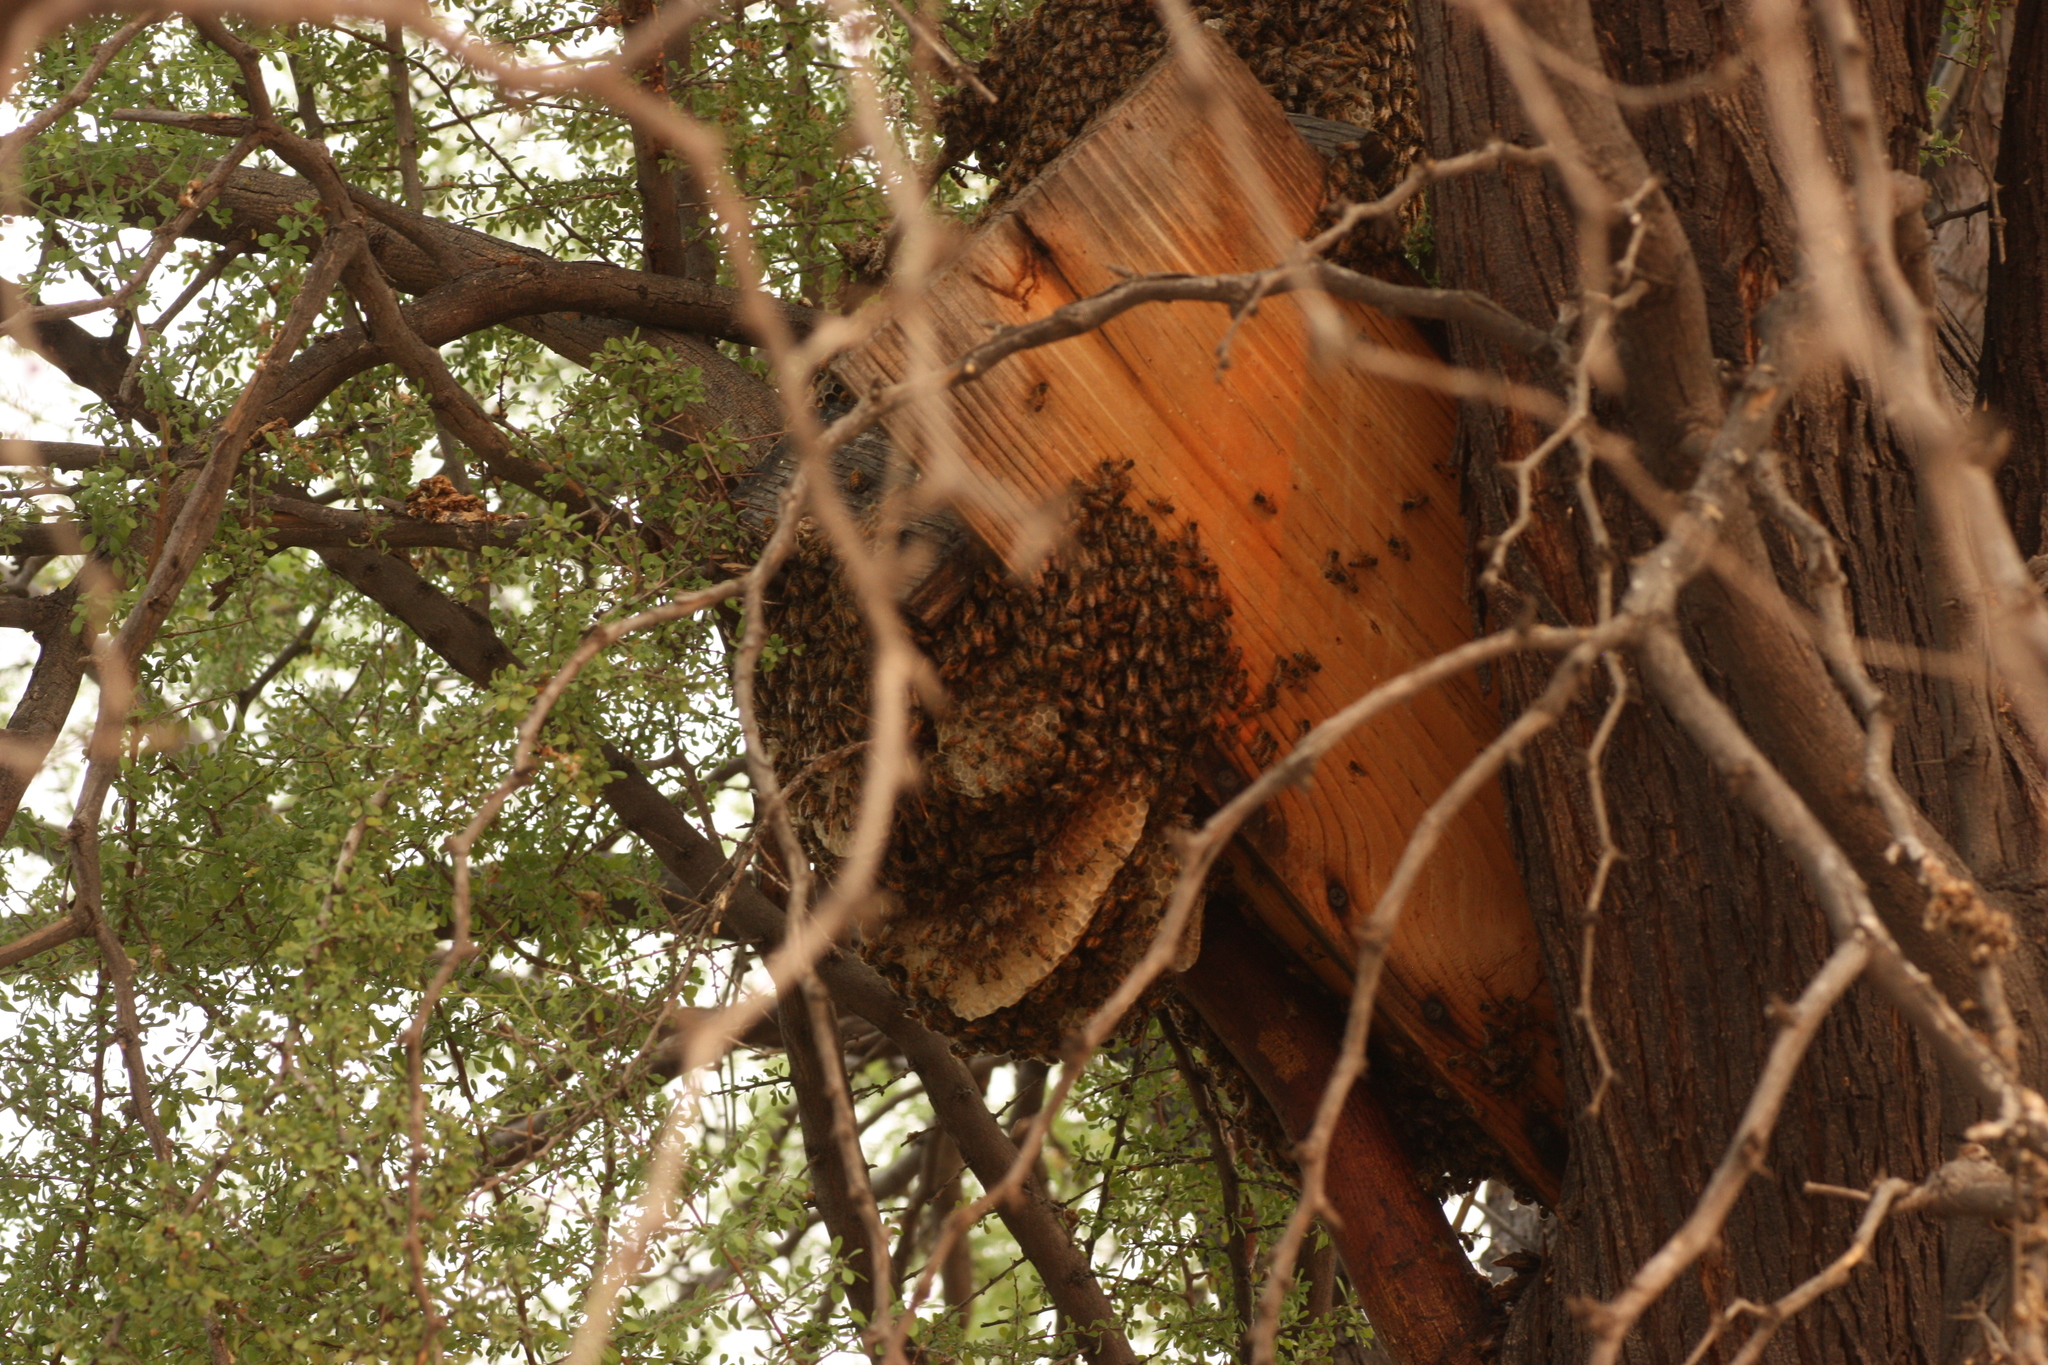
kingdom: Animalia
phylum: Arthropoda
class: Insecta
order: Hymenoptera
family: Apidae
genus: Apis
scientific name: Apis mellifera
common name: Honey bee
